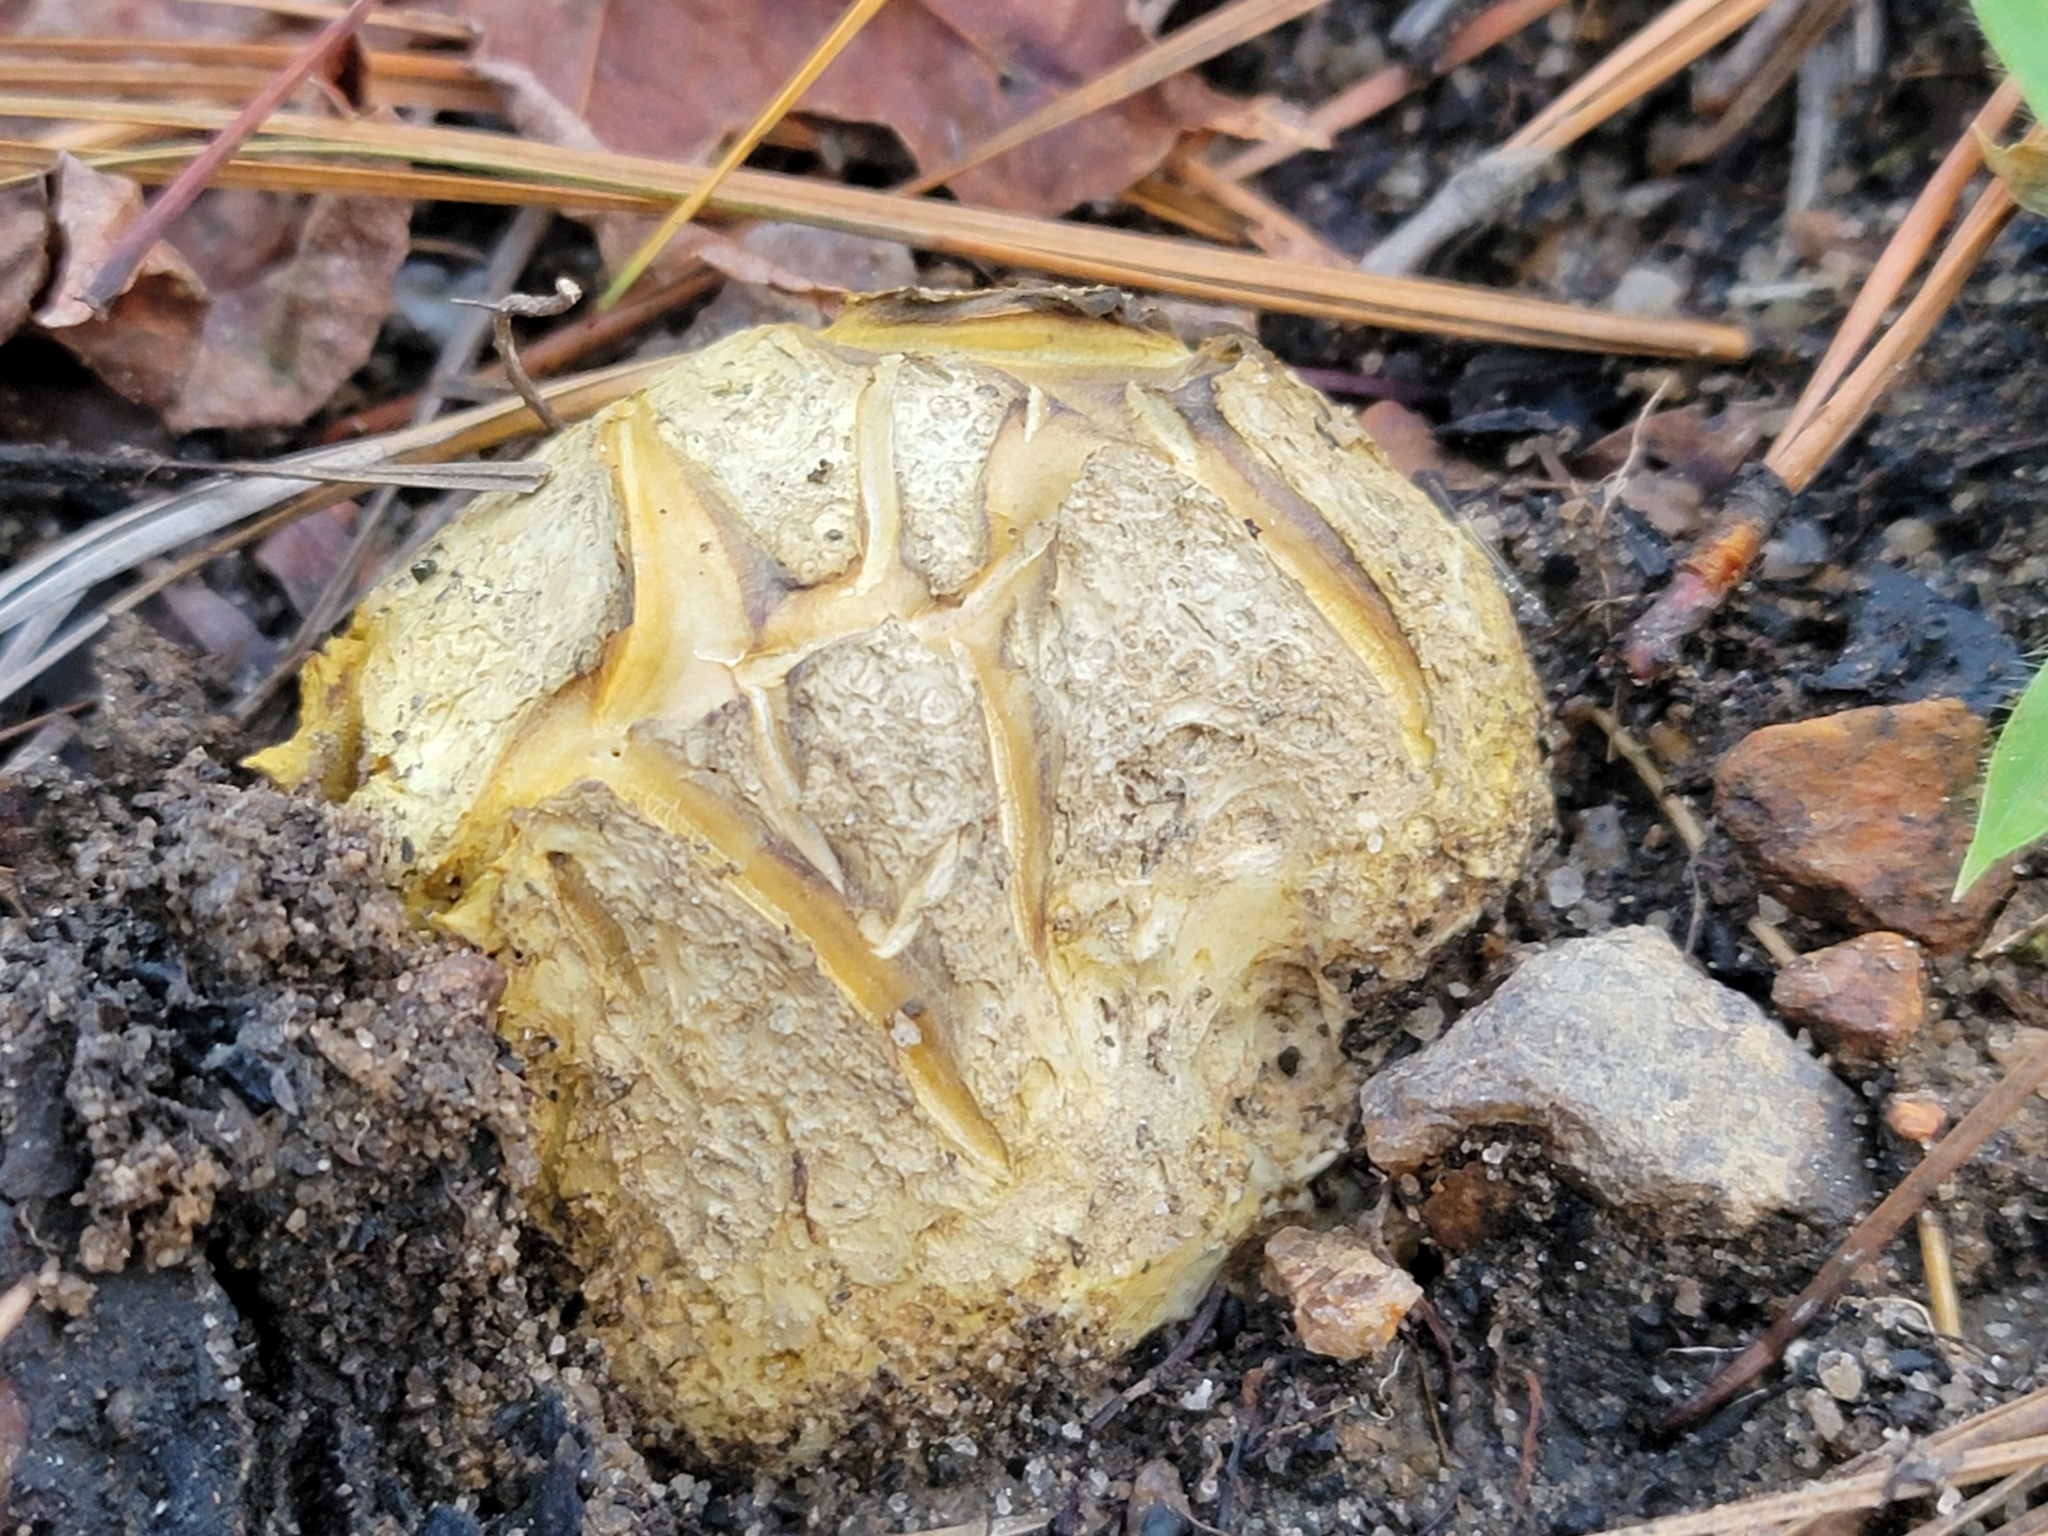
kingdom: Fungi
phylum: Basidiomycota
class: Agaricomycetes
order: Boletales
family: Sclerodermataceae
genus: Scleroderma
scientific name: Scleroderma polyrhizum
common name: Many-rooted earthball
